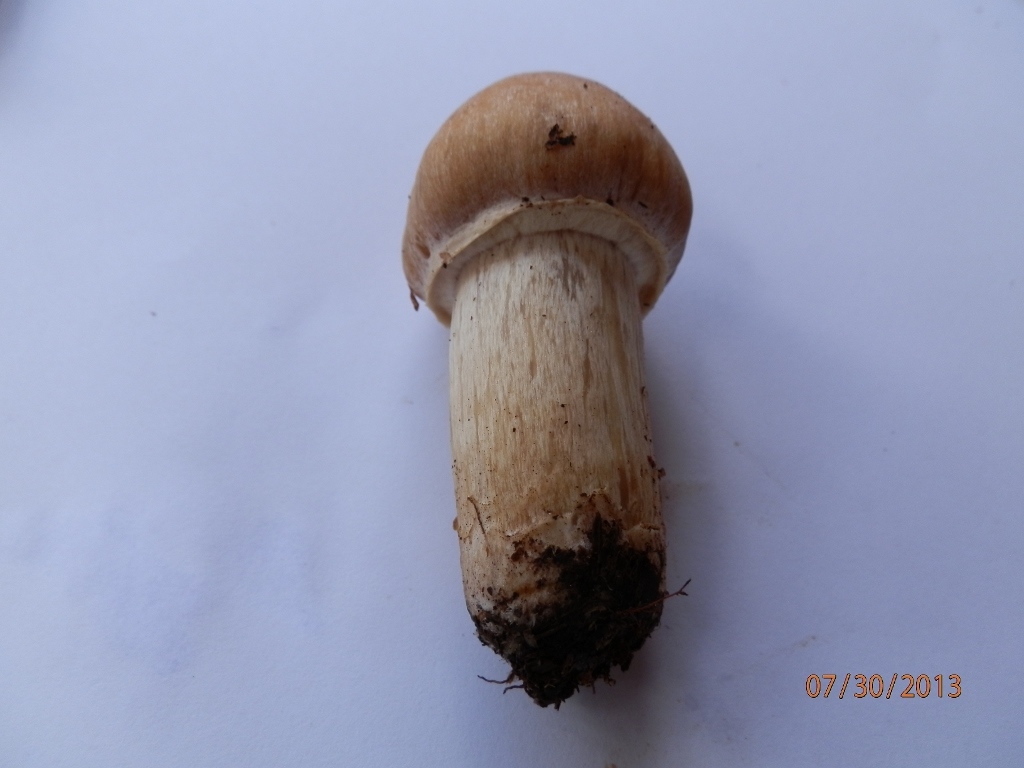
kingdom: Fungi
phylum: Basidiomycota
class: Agaricomycetes
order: Agaricales
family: Cortinariaceae
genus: Cortinarius
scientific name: Cortinarius caperatus
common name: The gypsy
